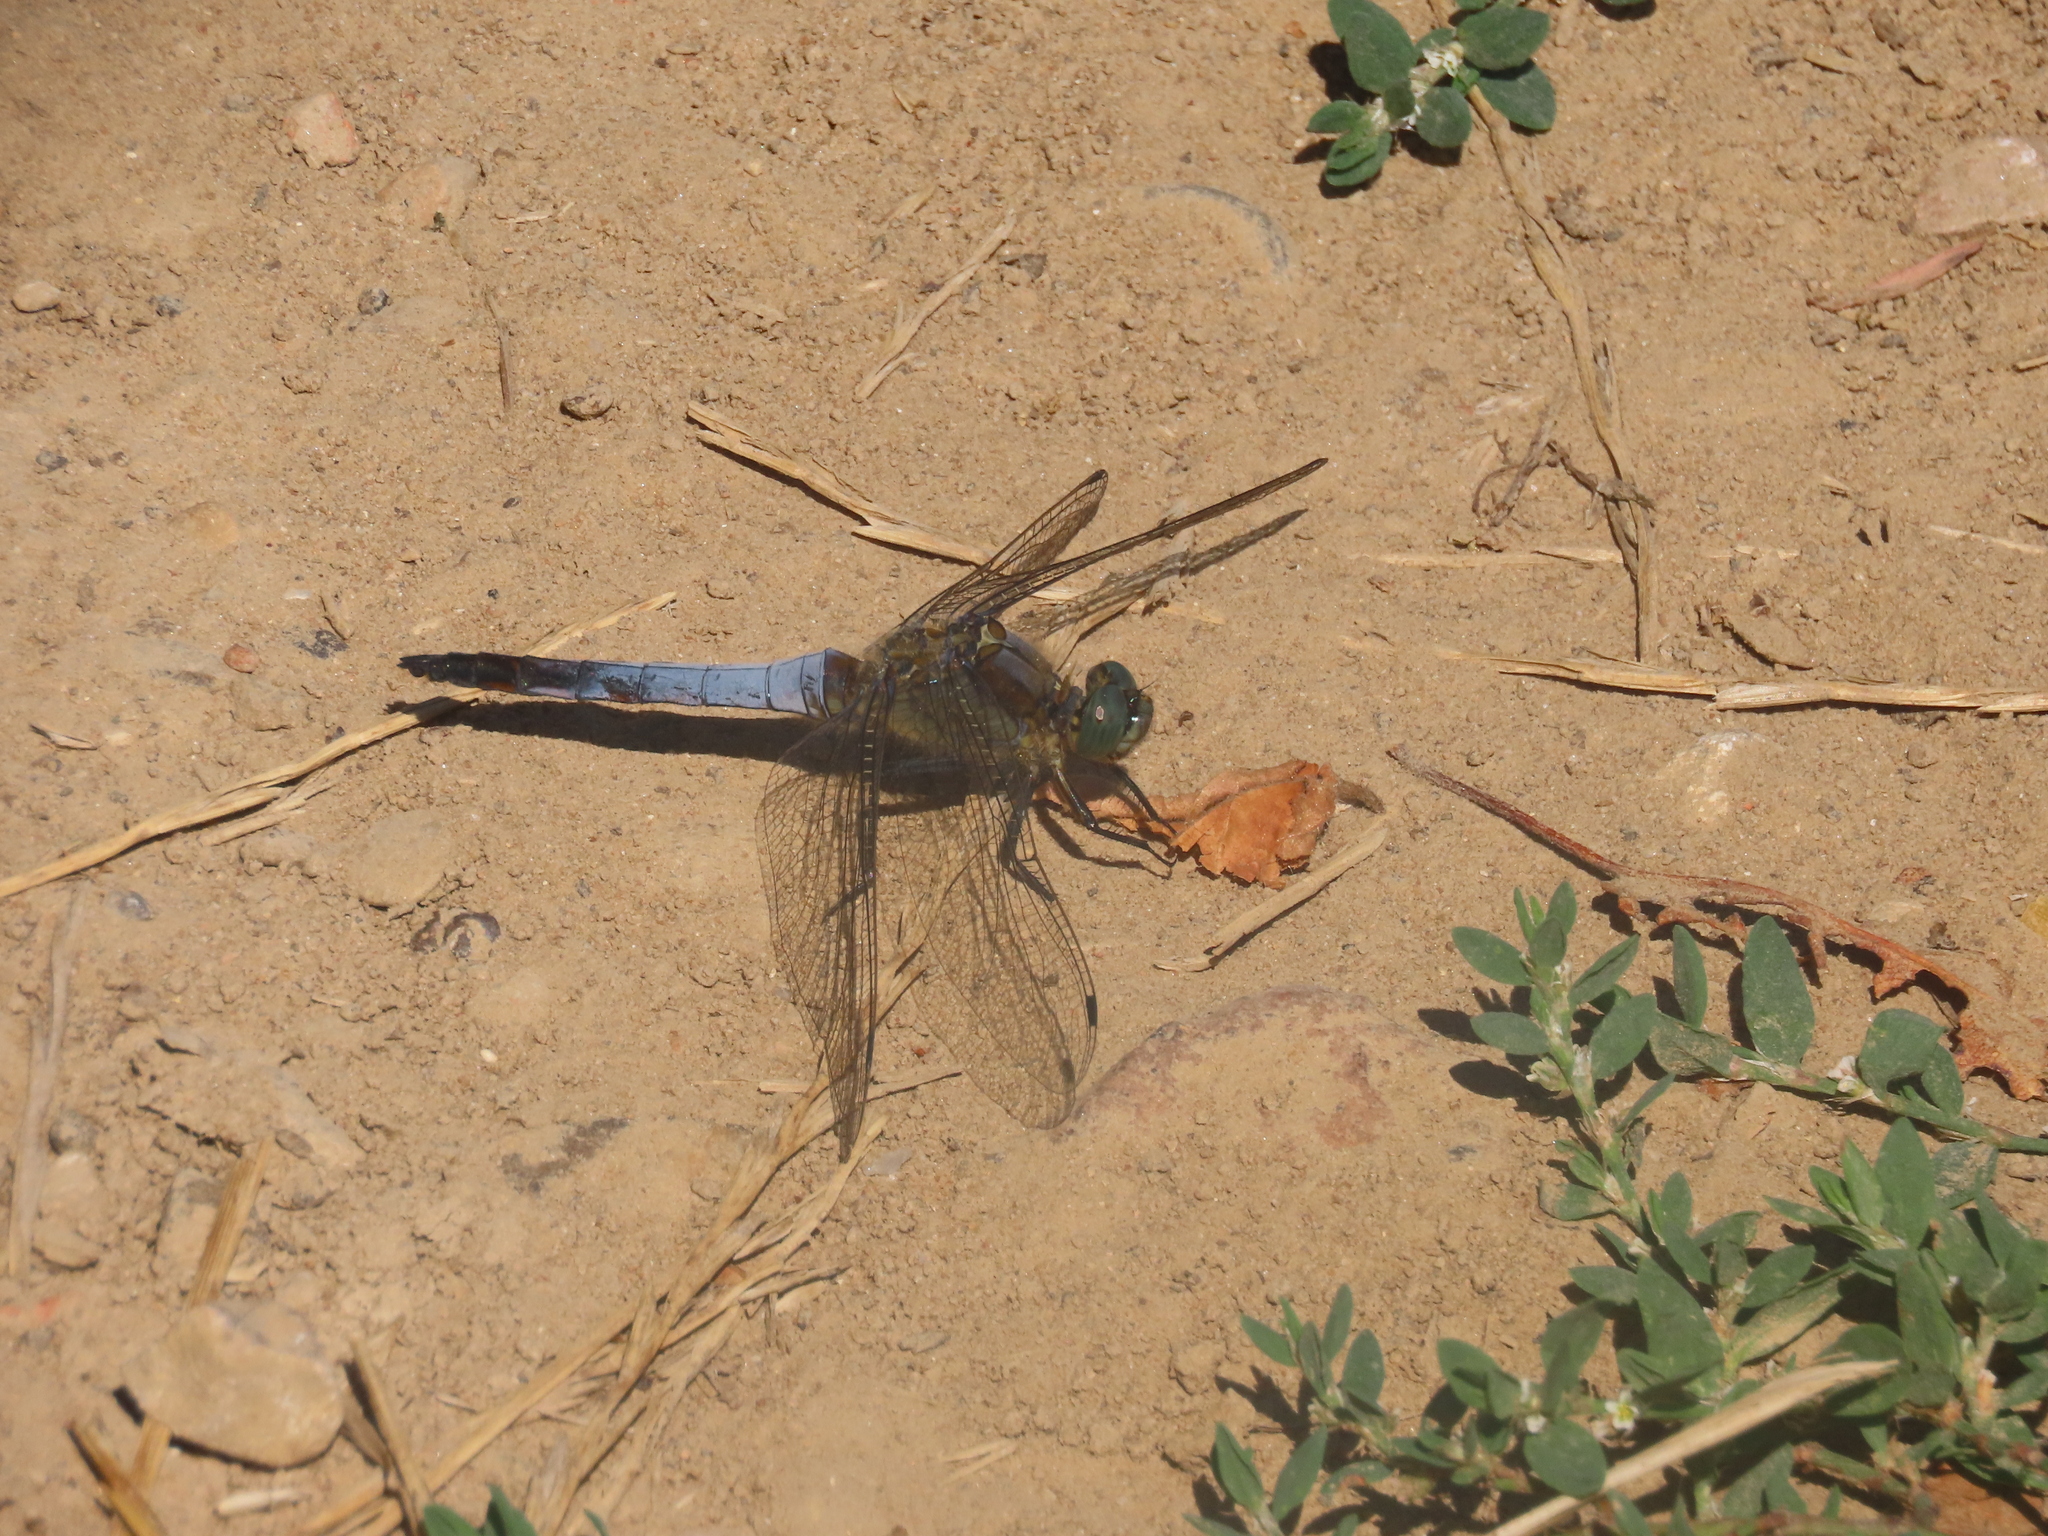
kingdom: Animalia
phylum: Arthropoda
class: Insecta
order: Odonata
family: Libellulidae
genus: Orthetrum
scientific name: Orthetrum cancellatum
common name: Black-tailed skimmer
